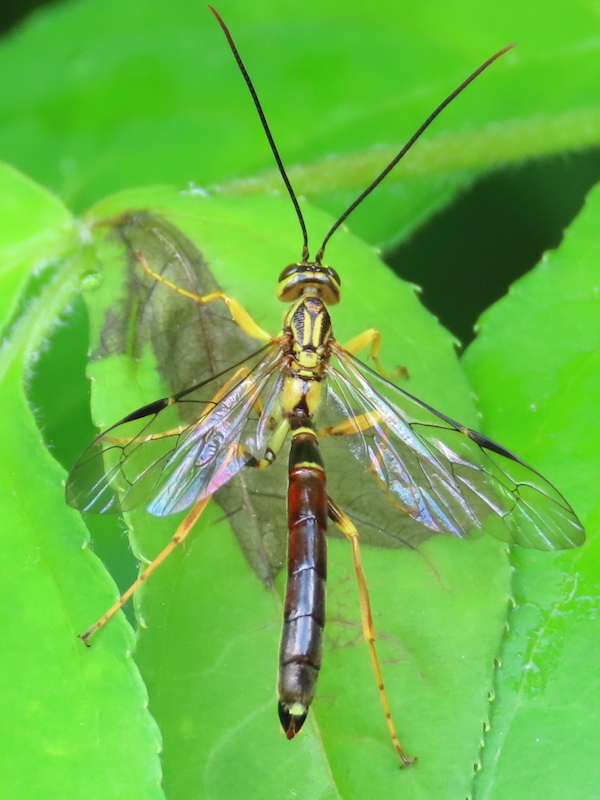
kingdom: Animalia
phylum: Arthropoda
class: Insecta
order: Hymenoptera
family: Ichneumonidae
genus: Megarhyssa
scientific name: Megarhyssa atrata
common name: Black giant ichneumonid wasp
